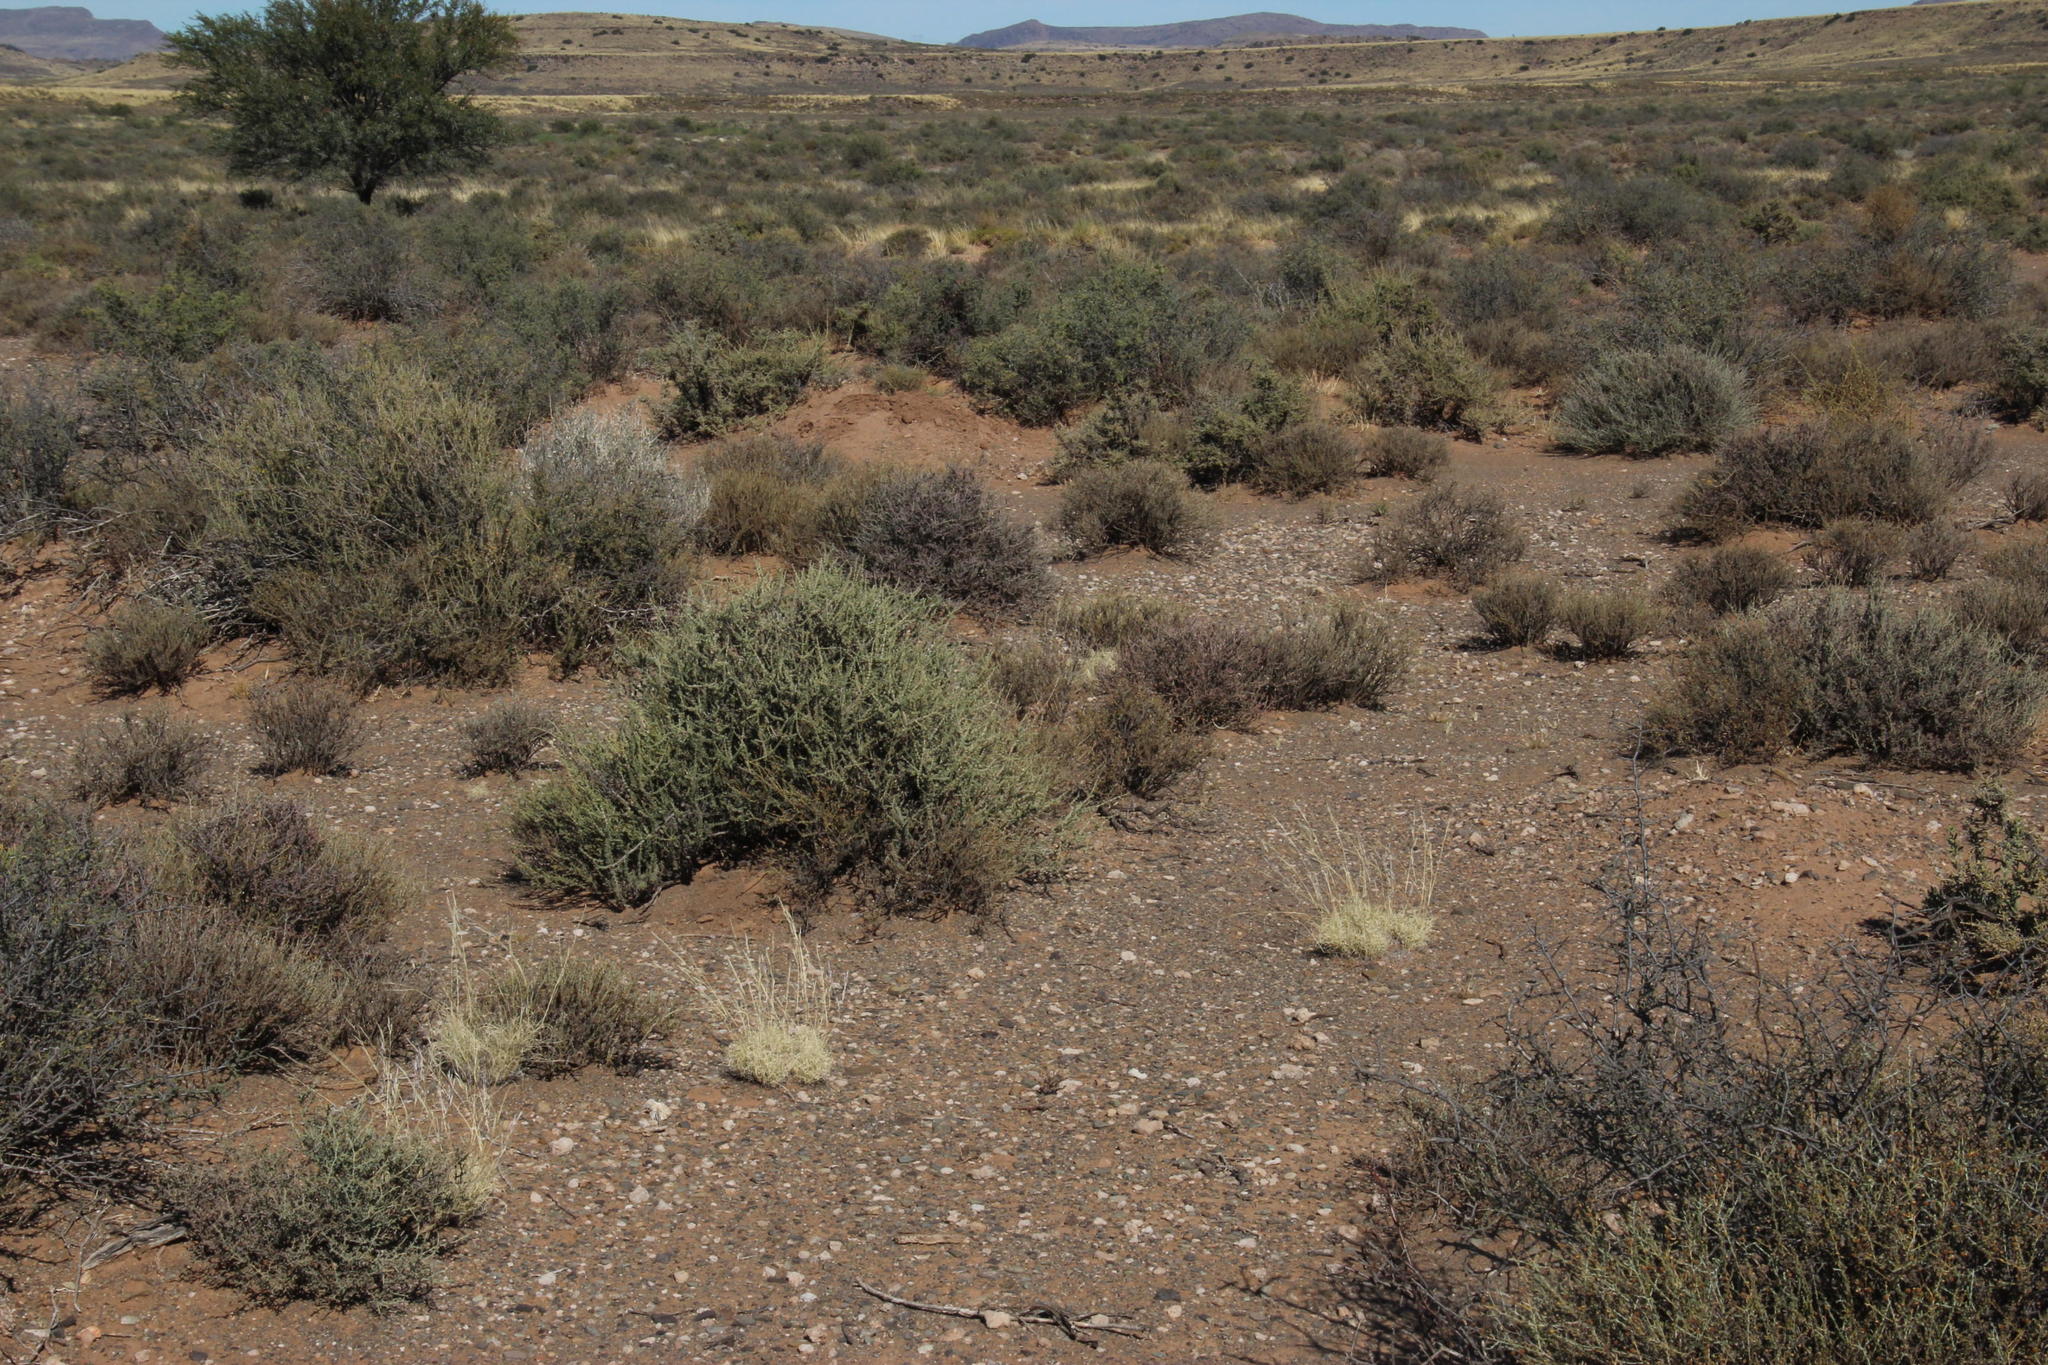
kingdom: Plantae
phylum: Tracheophyta
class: Liliopsida
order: Poales
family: Poaceae
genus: Stipagrostis
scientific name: Stipagrostis obtusa
